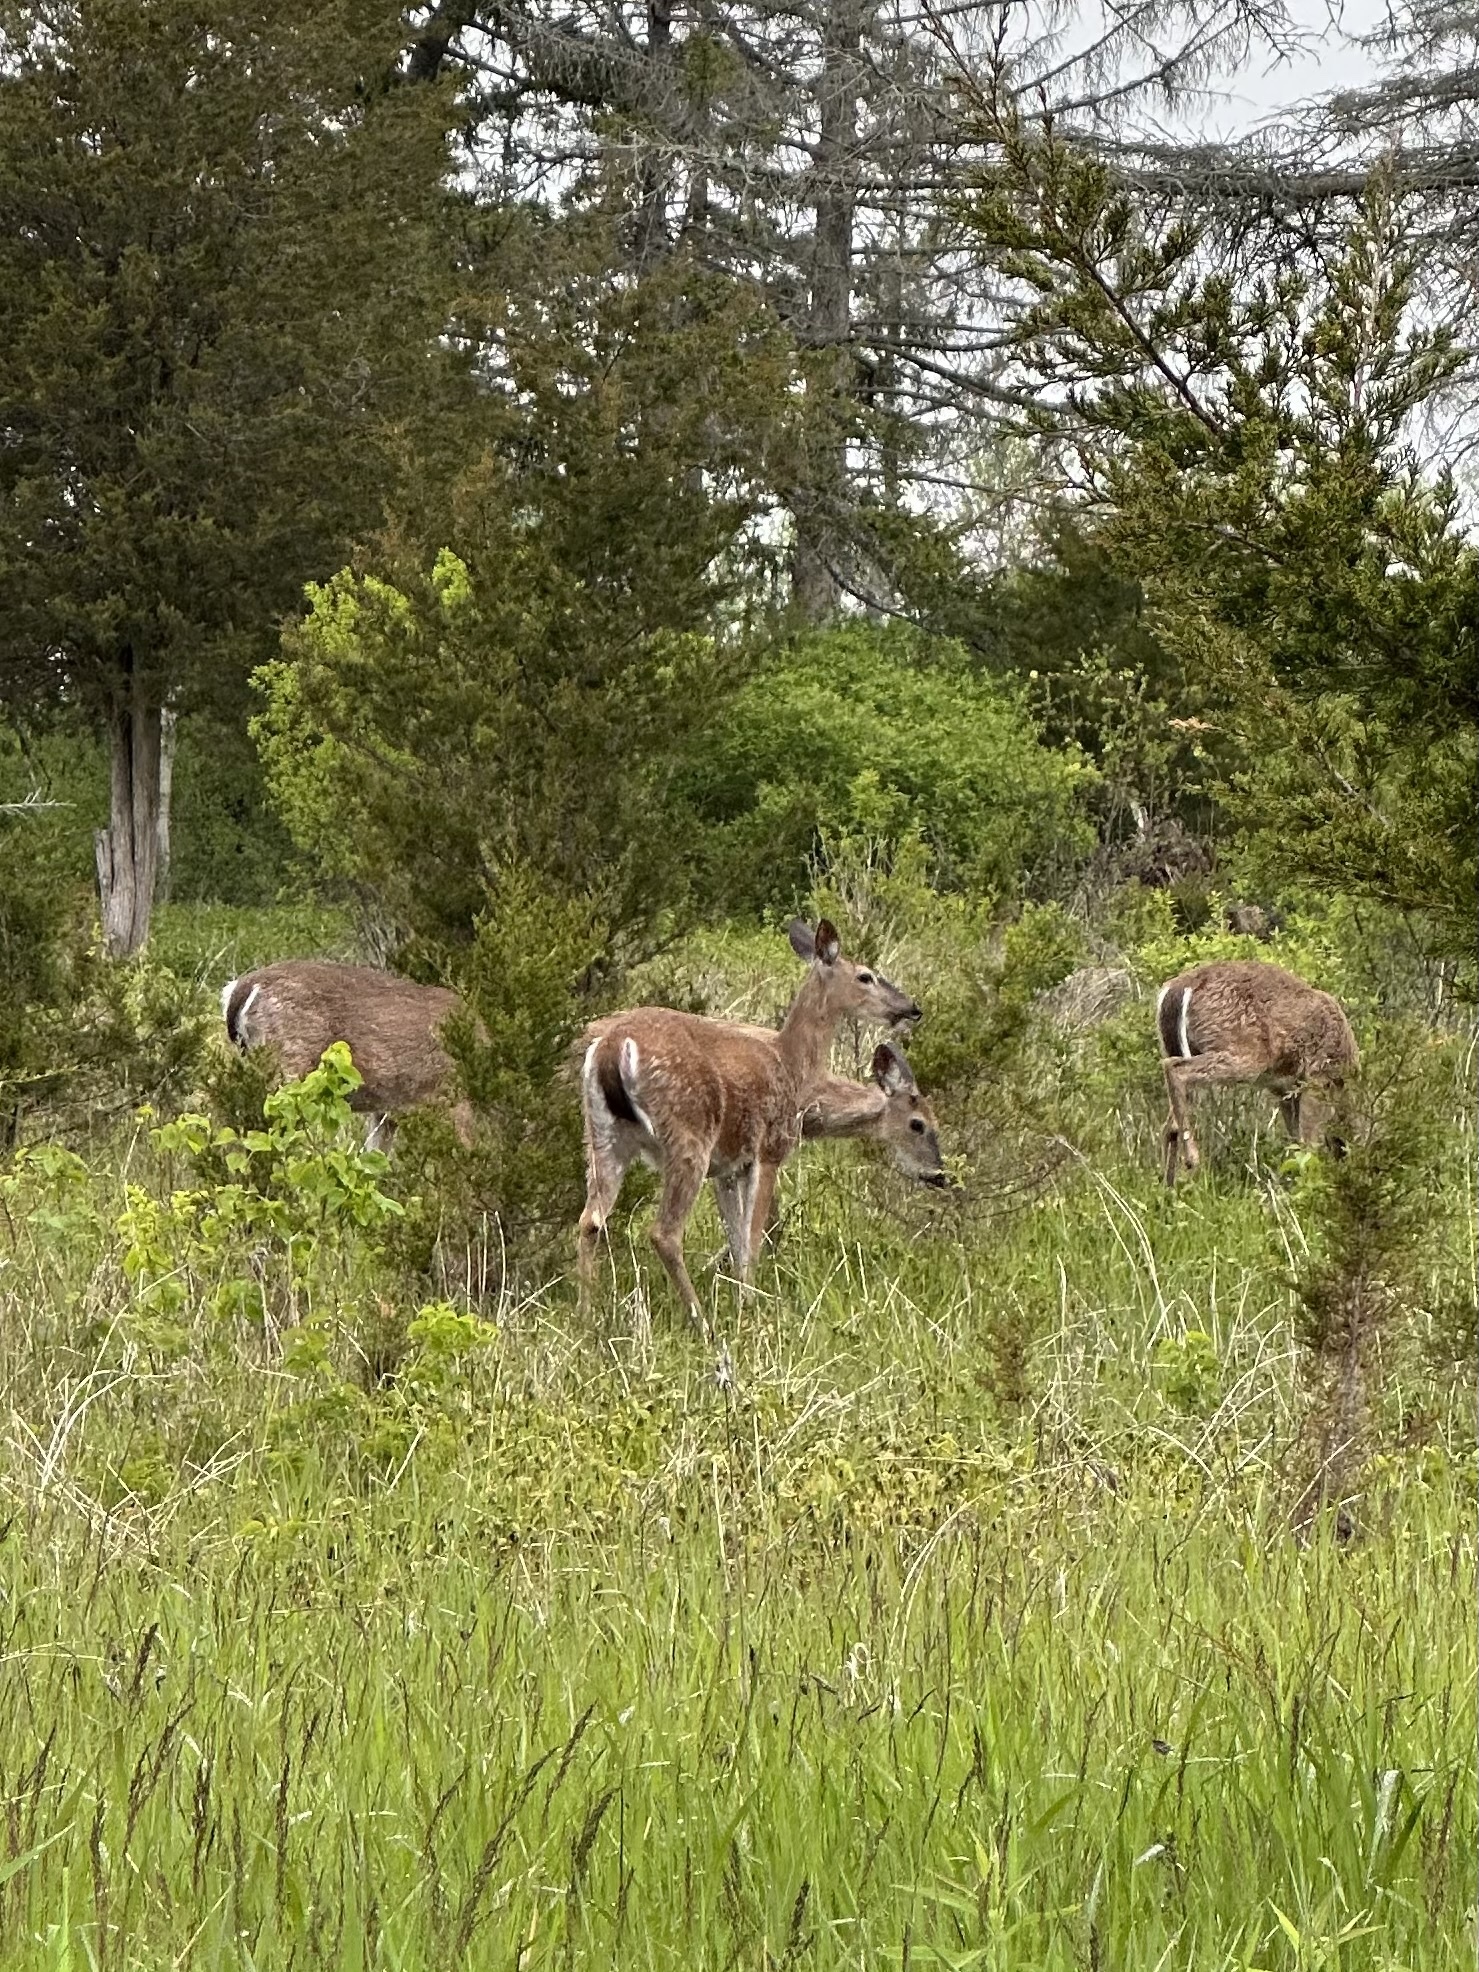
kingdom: Animalia
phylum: Chordata
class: Mammalia
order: Artiodactyla
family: Cervidae
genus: Odocoileus
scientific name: Odocoileus virginianus
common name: White-tailed deer
